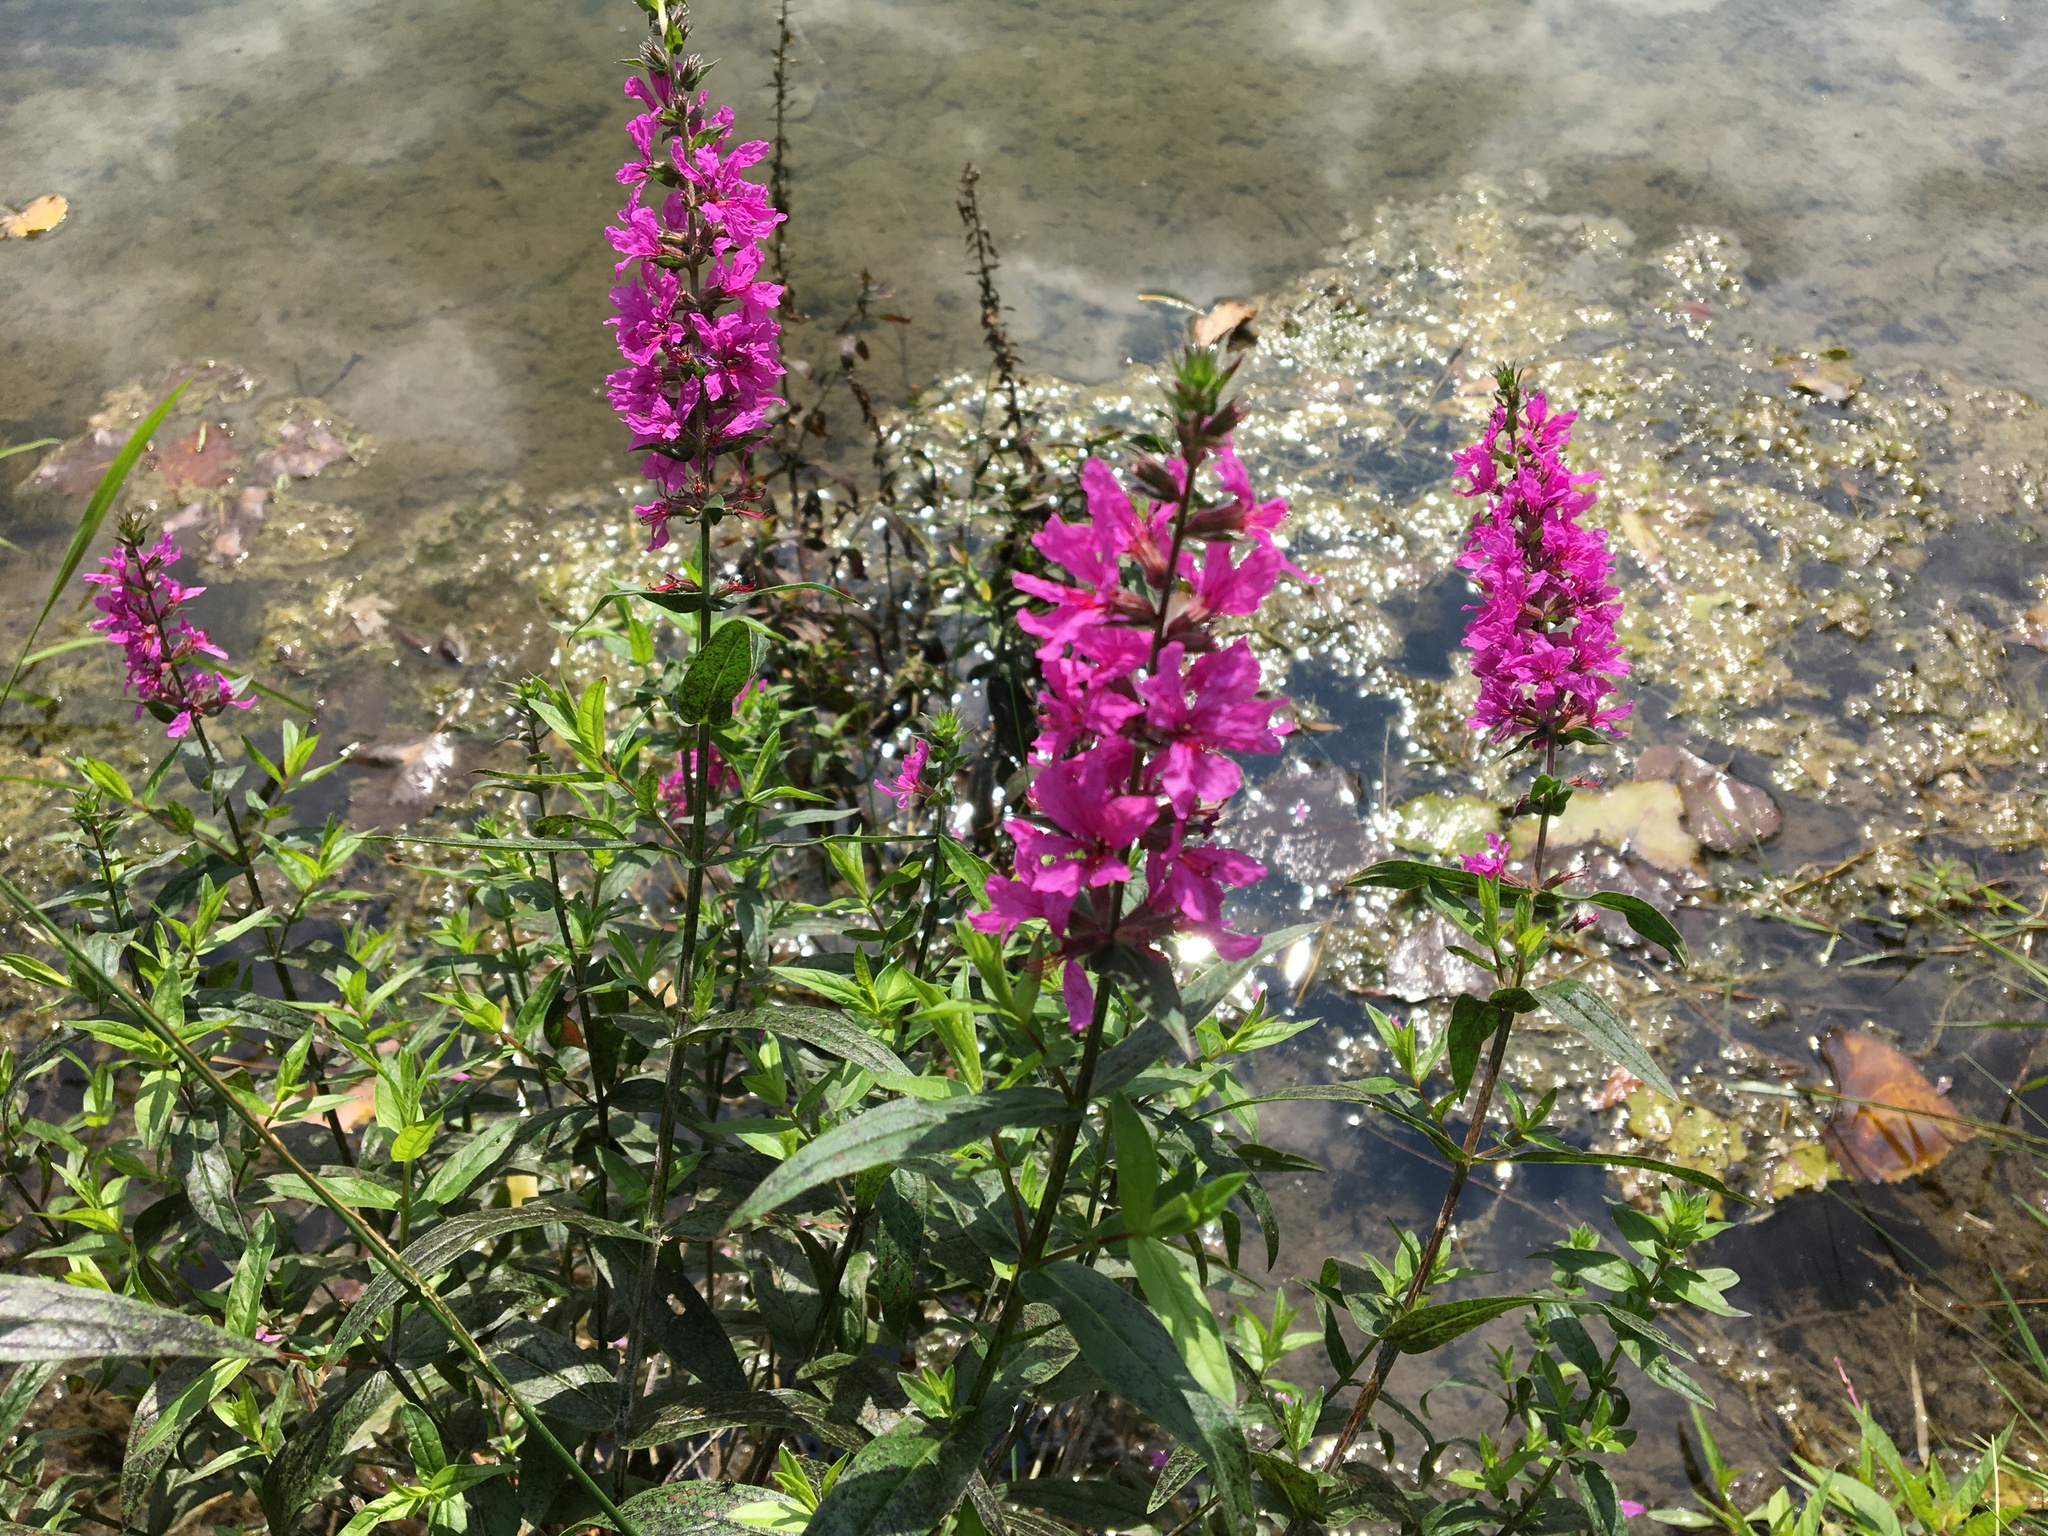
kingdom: Plantae
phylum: Tracheophyta
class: Magnoliopsida
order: Myrtales
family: Lythraceae
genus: Lythrum
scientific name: Lythrum salicaria
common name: Purple loosestrife
